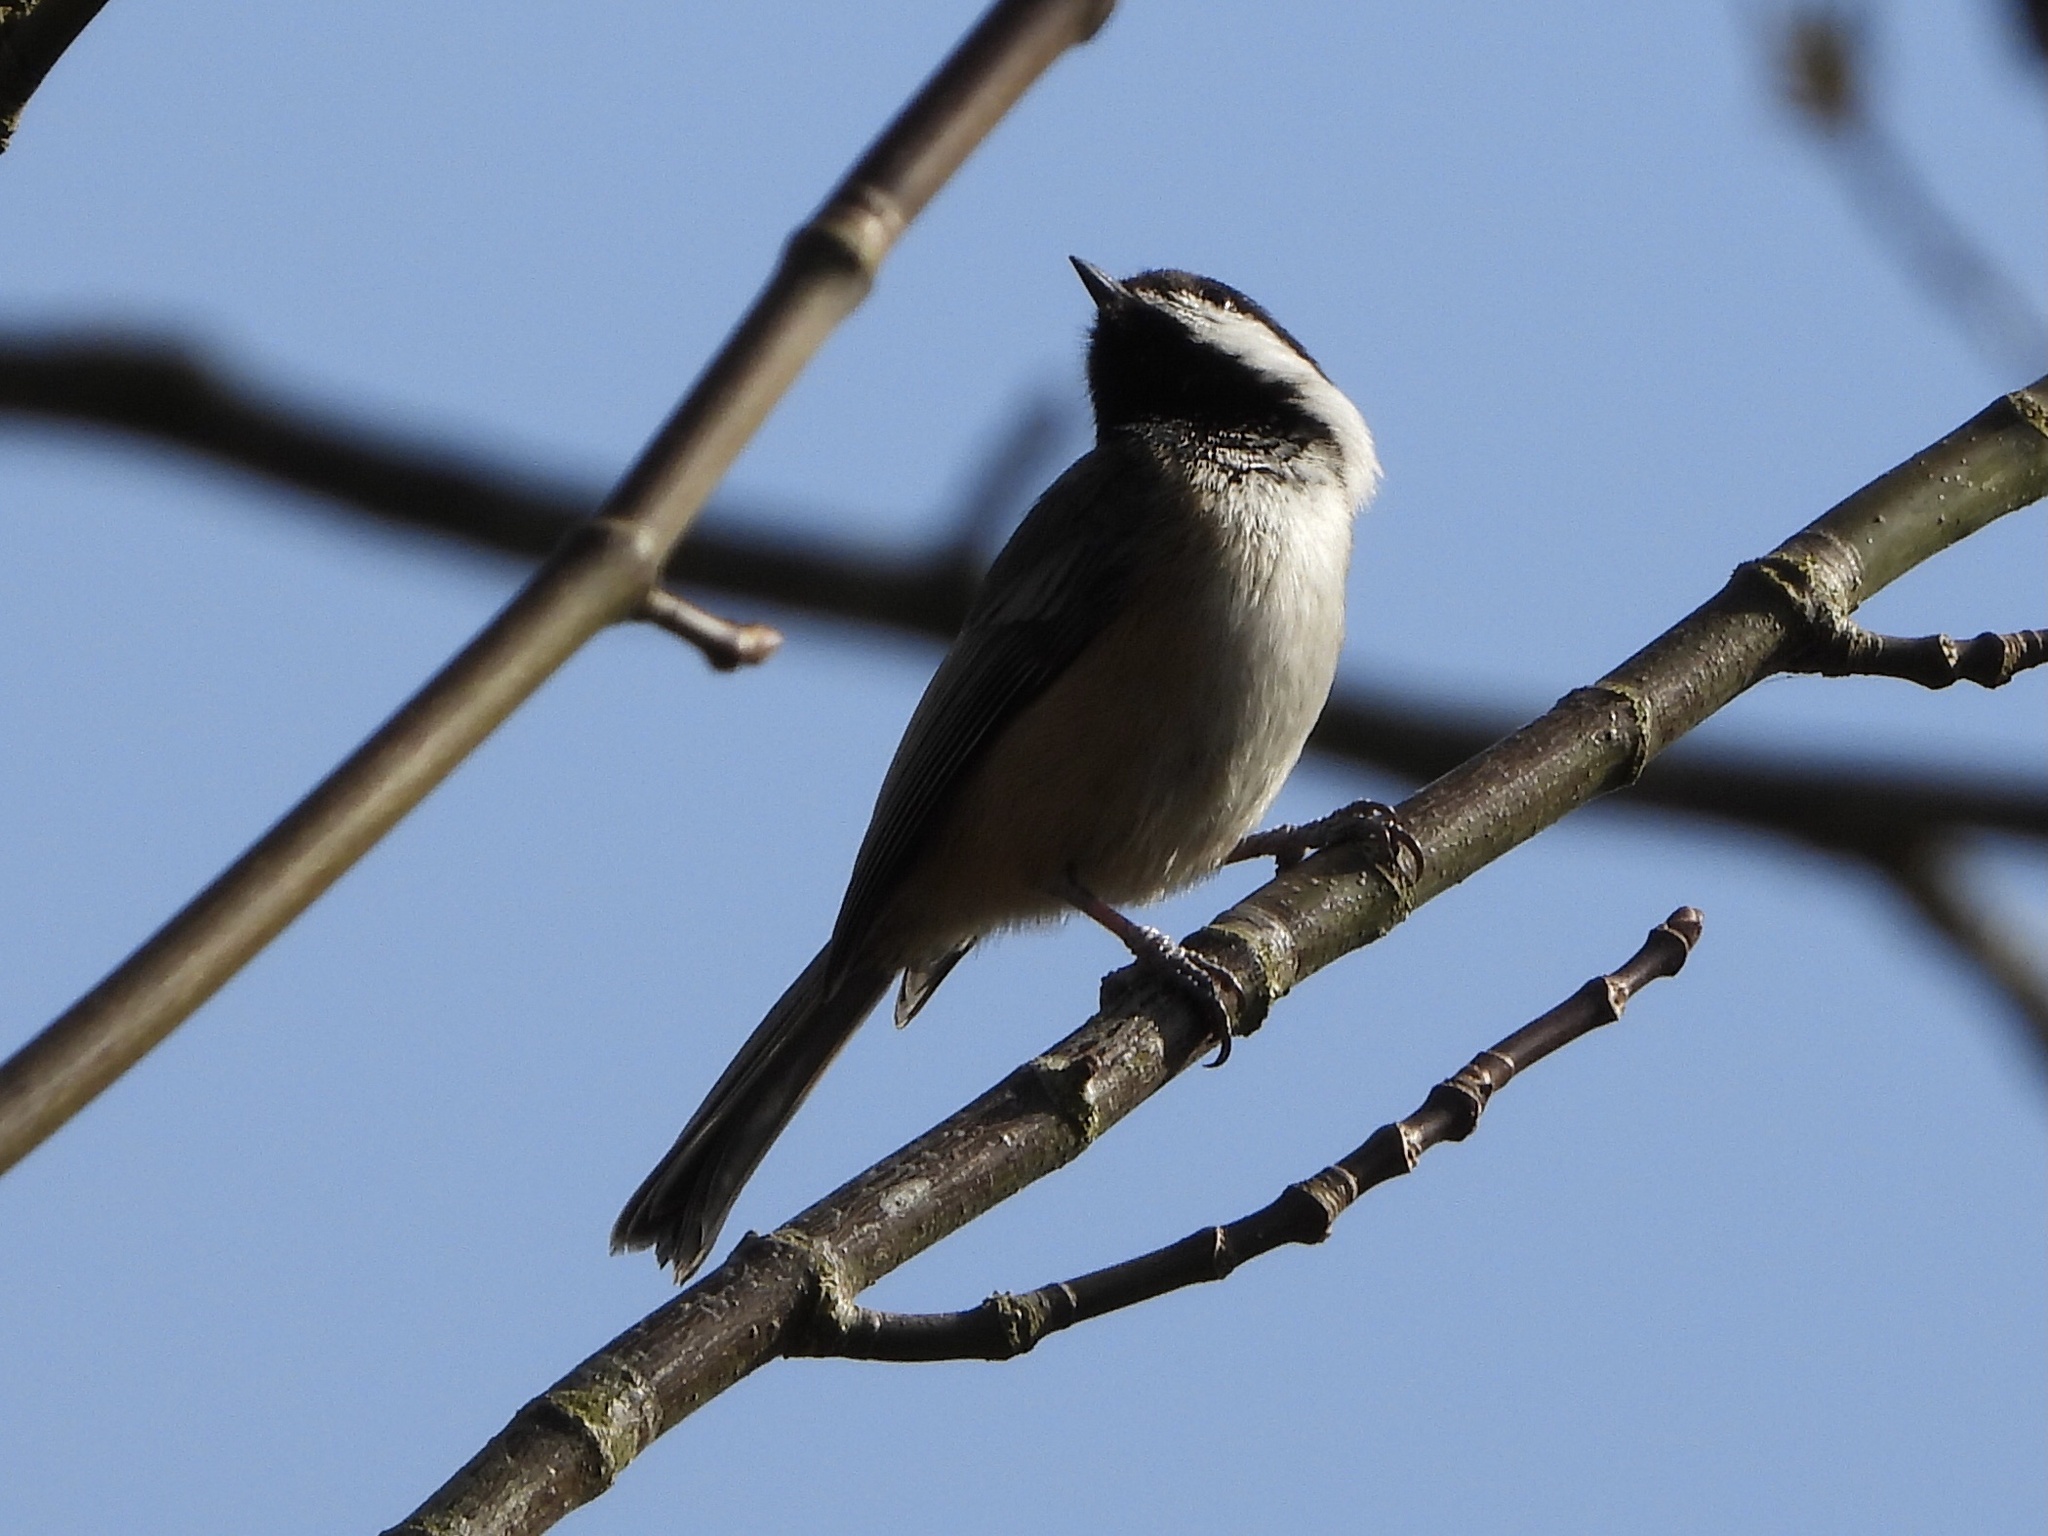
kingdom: Animalia
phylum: Chordata
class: Aves
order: Passeriformes
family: Paridae
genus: Poecile
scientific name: Poecile atricapillus
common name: Black-capped chickadee
